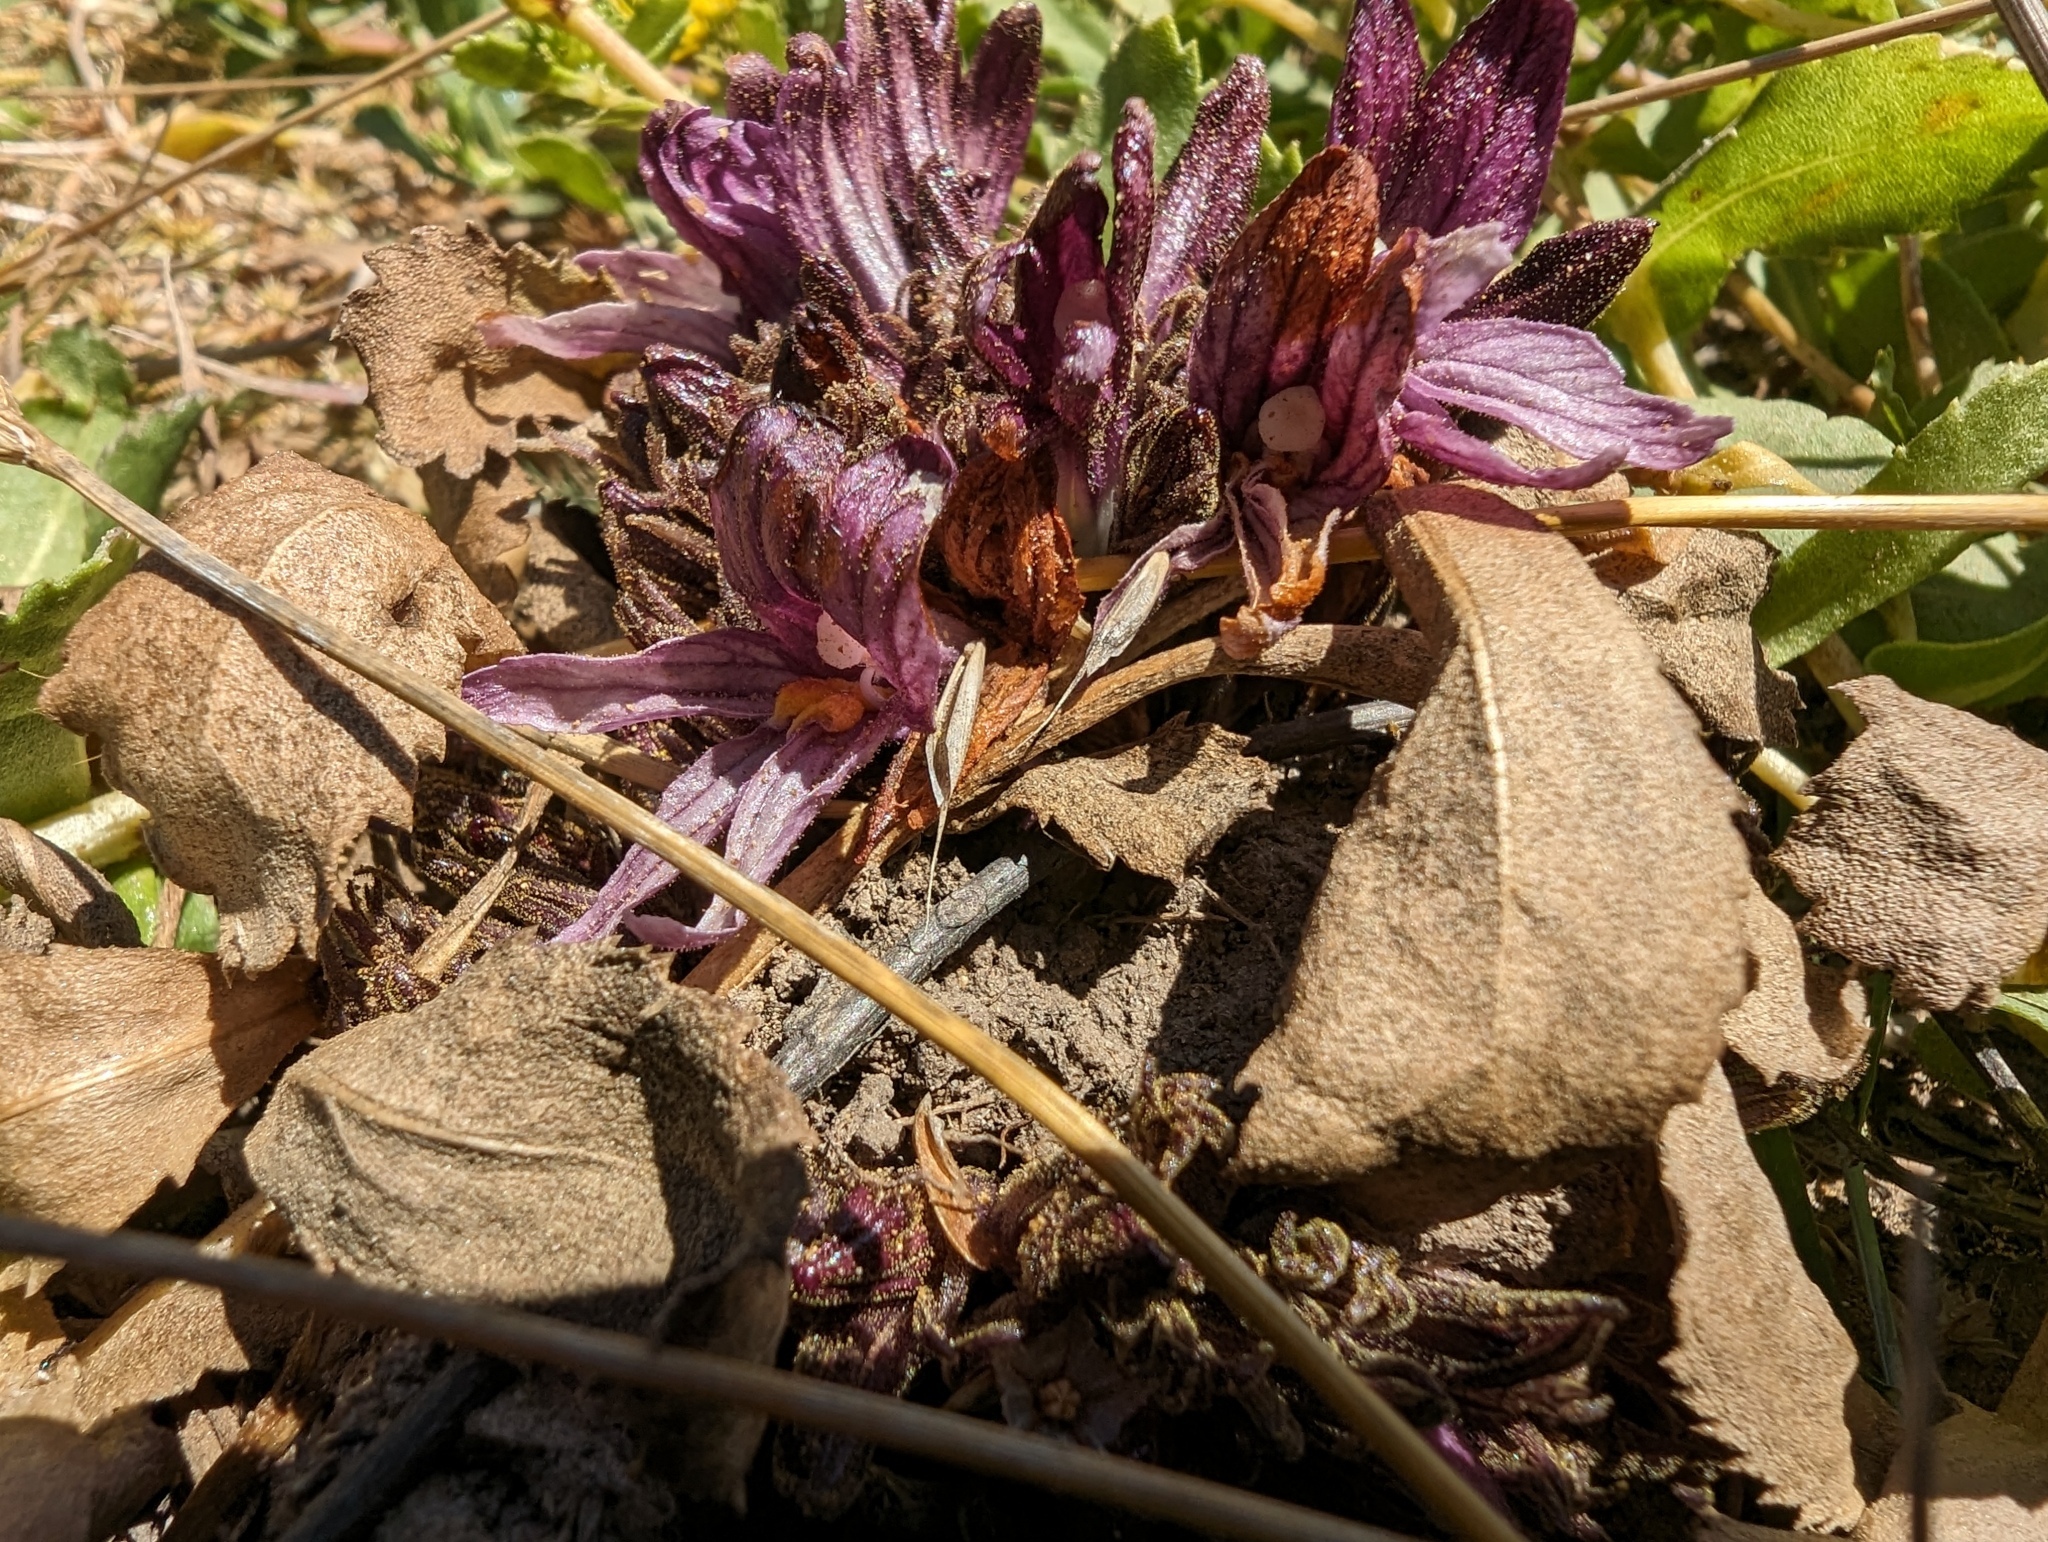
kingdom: Plantae
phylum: Tracheophyta
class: Magnoliopsida
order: Lamiales
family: Orobanchaceae
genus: Aphyllon
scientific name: Aphyllon californicum
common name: California broomrape
